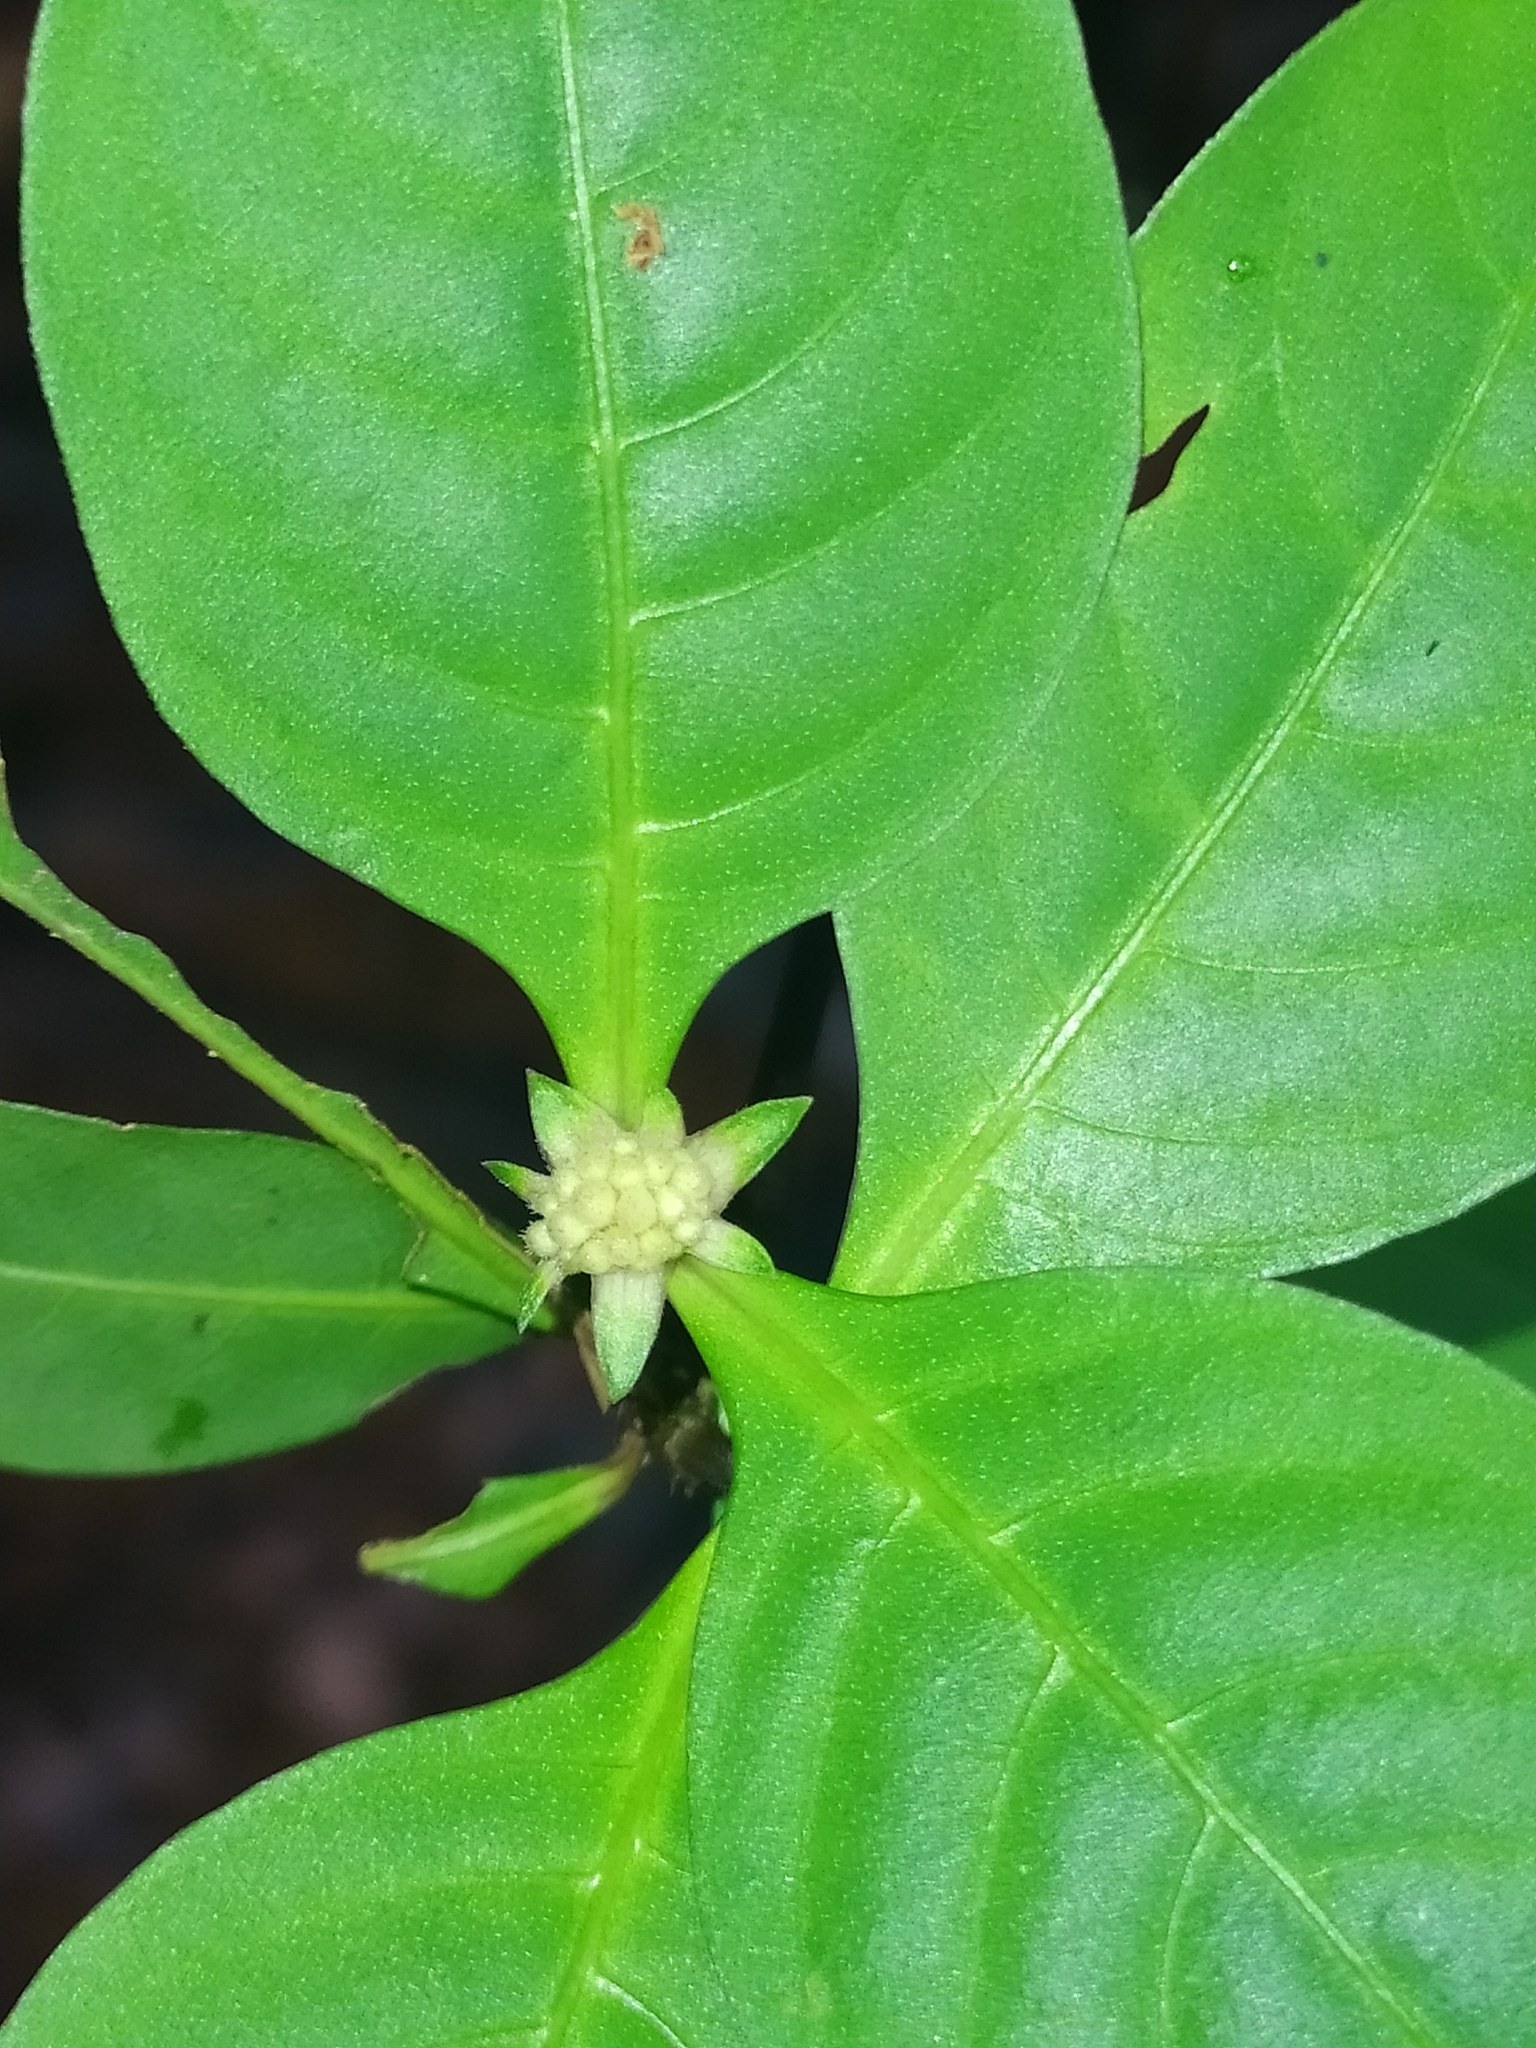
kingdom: Plantae
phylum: Tracheophyta
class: Magnoliopsida
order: Gentianales
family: Rubiaceae
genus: Palicourea
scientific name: Palicourea hoffmannseggiana
